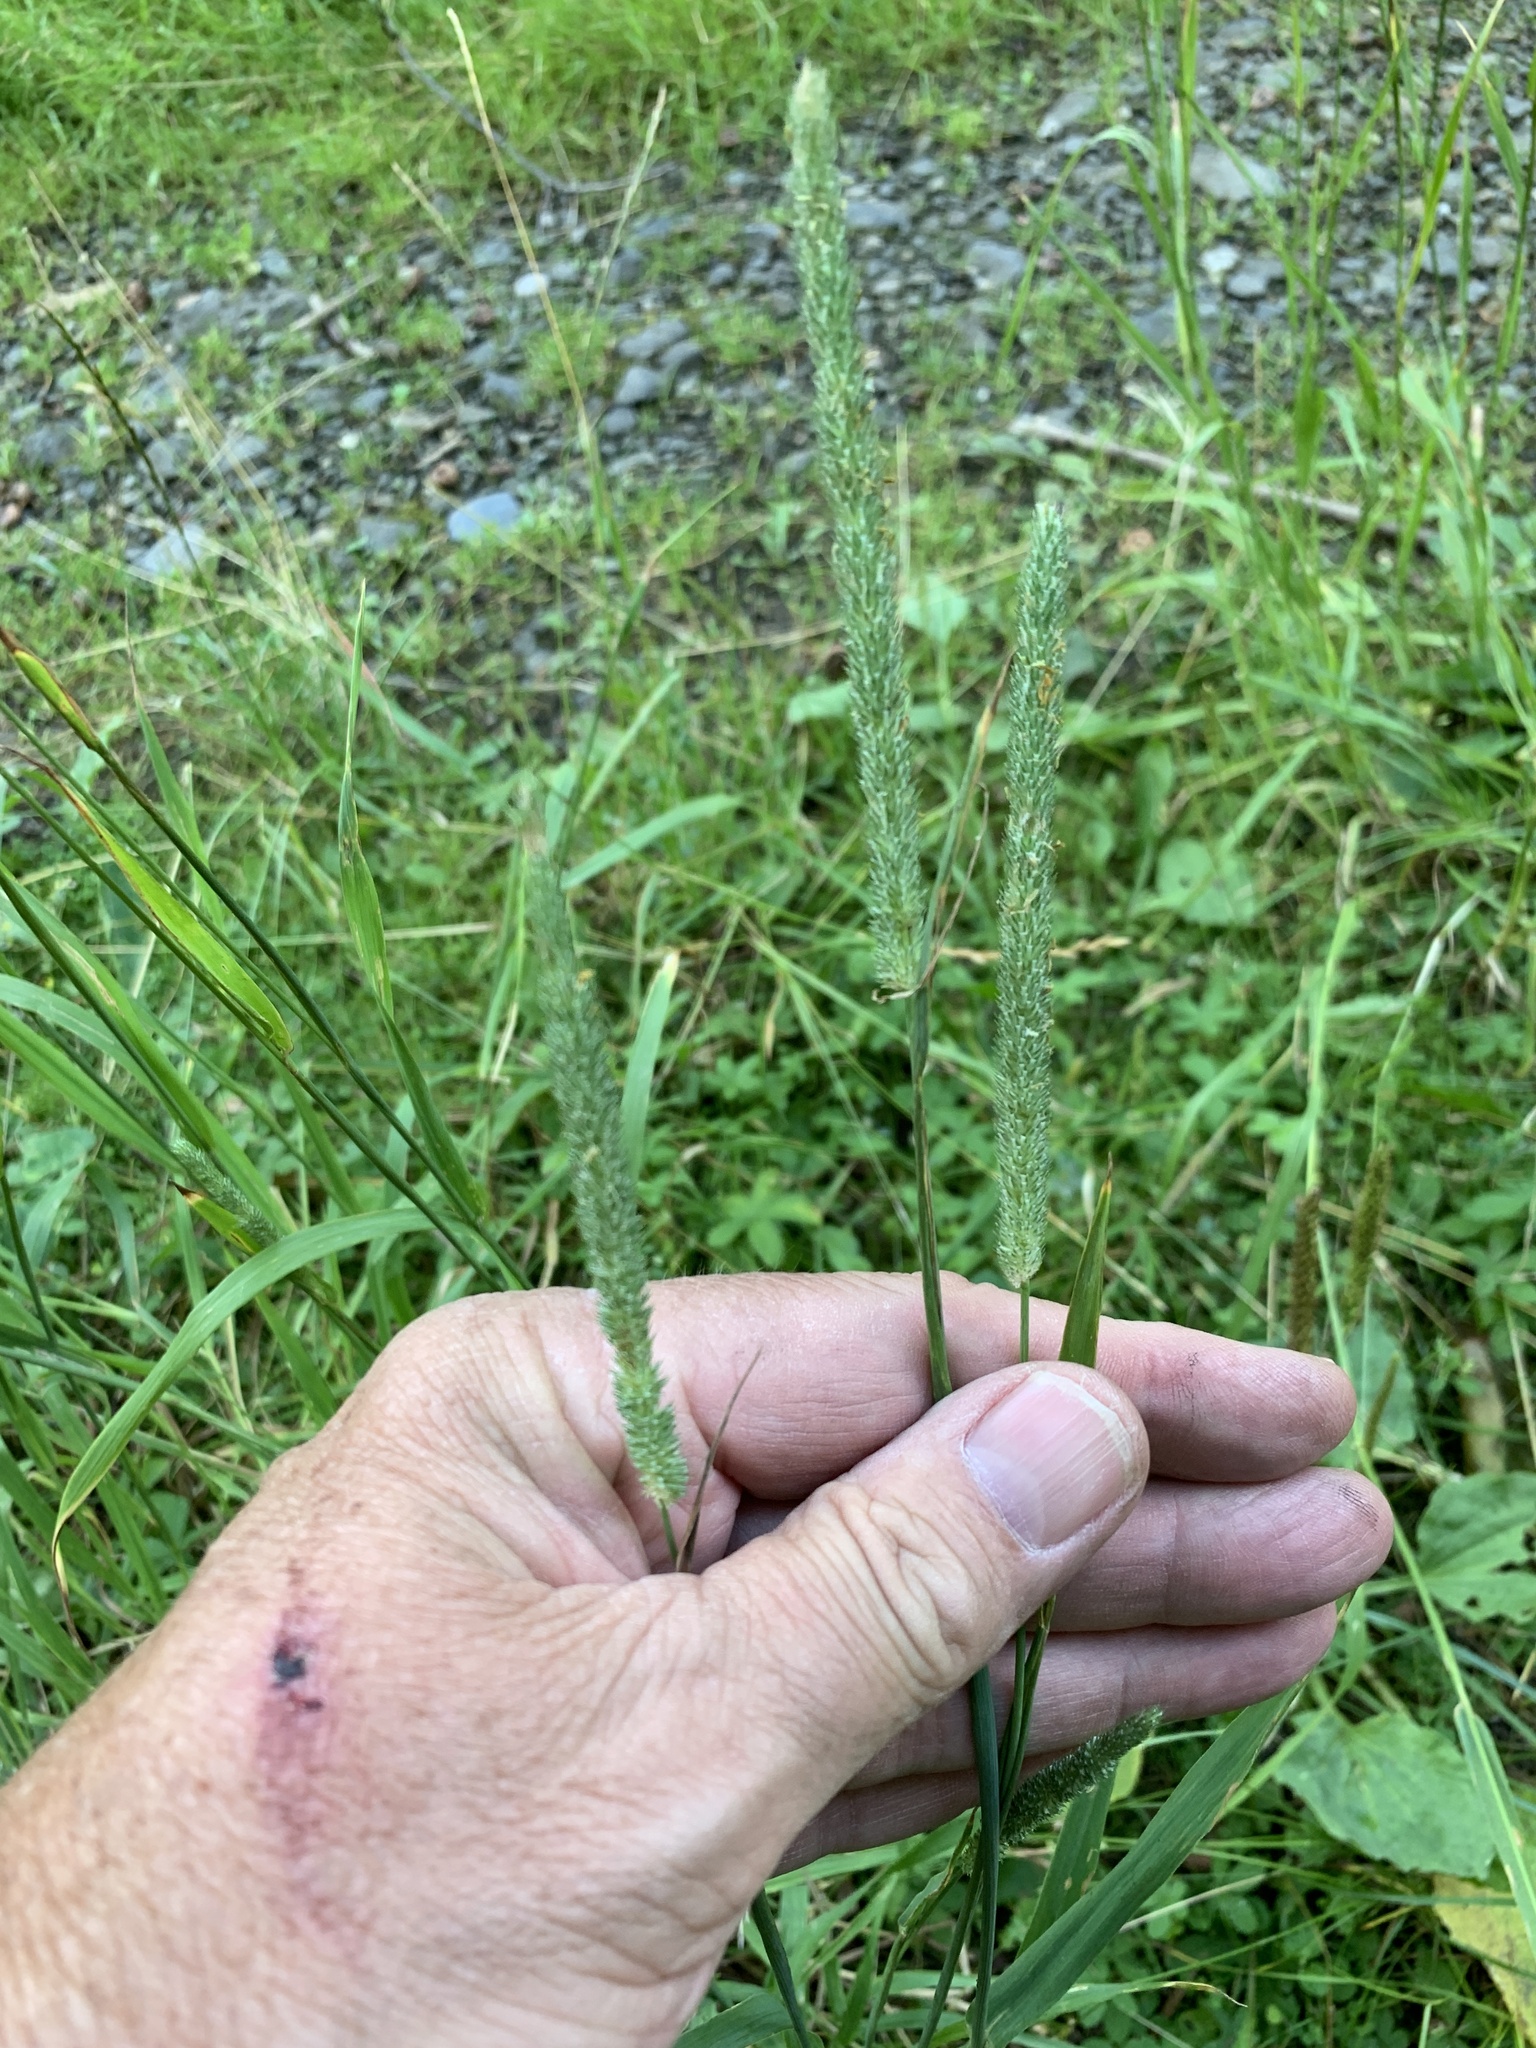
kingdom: Plantae
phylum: Tracheophyta
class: Liliopsida
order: Poales
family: Poaceae
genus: Phleum
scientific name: Phleum pratense
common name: Timothy grass
